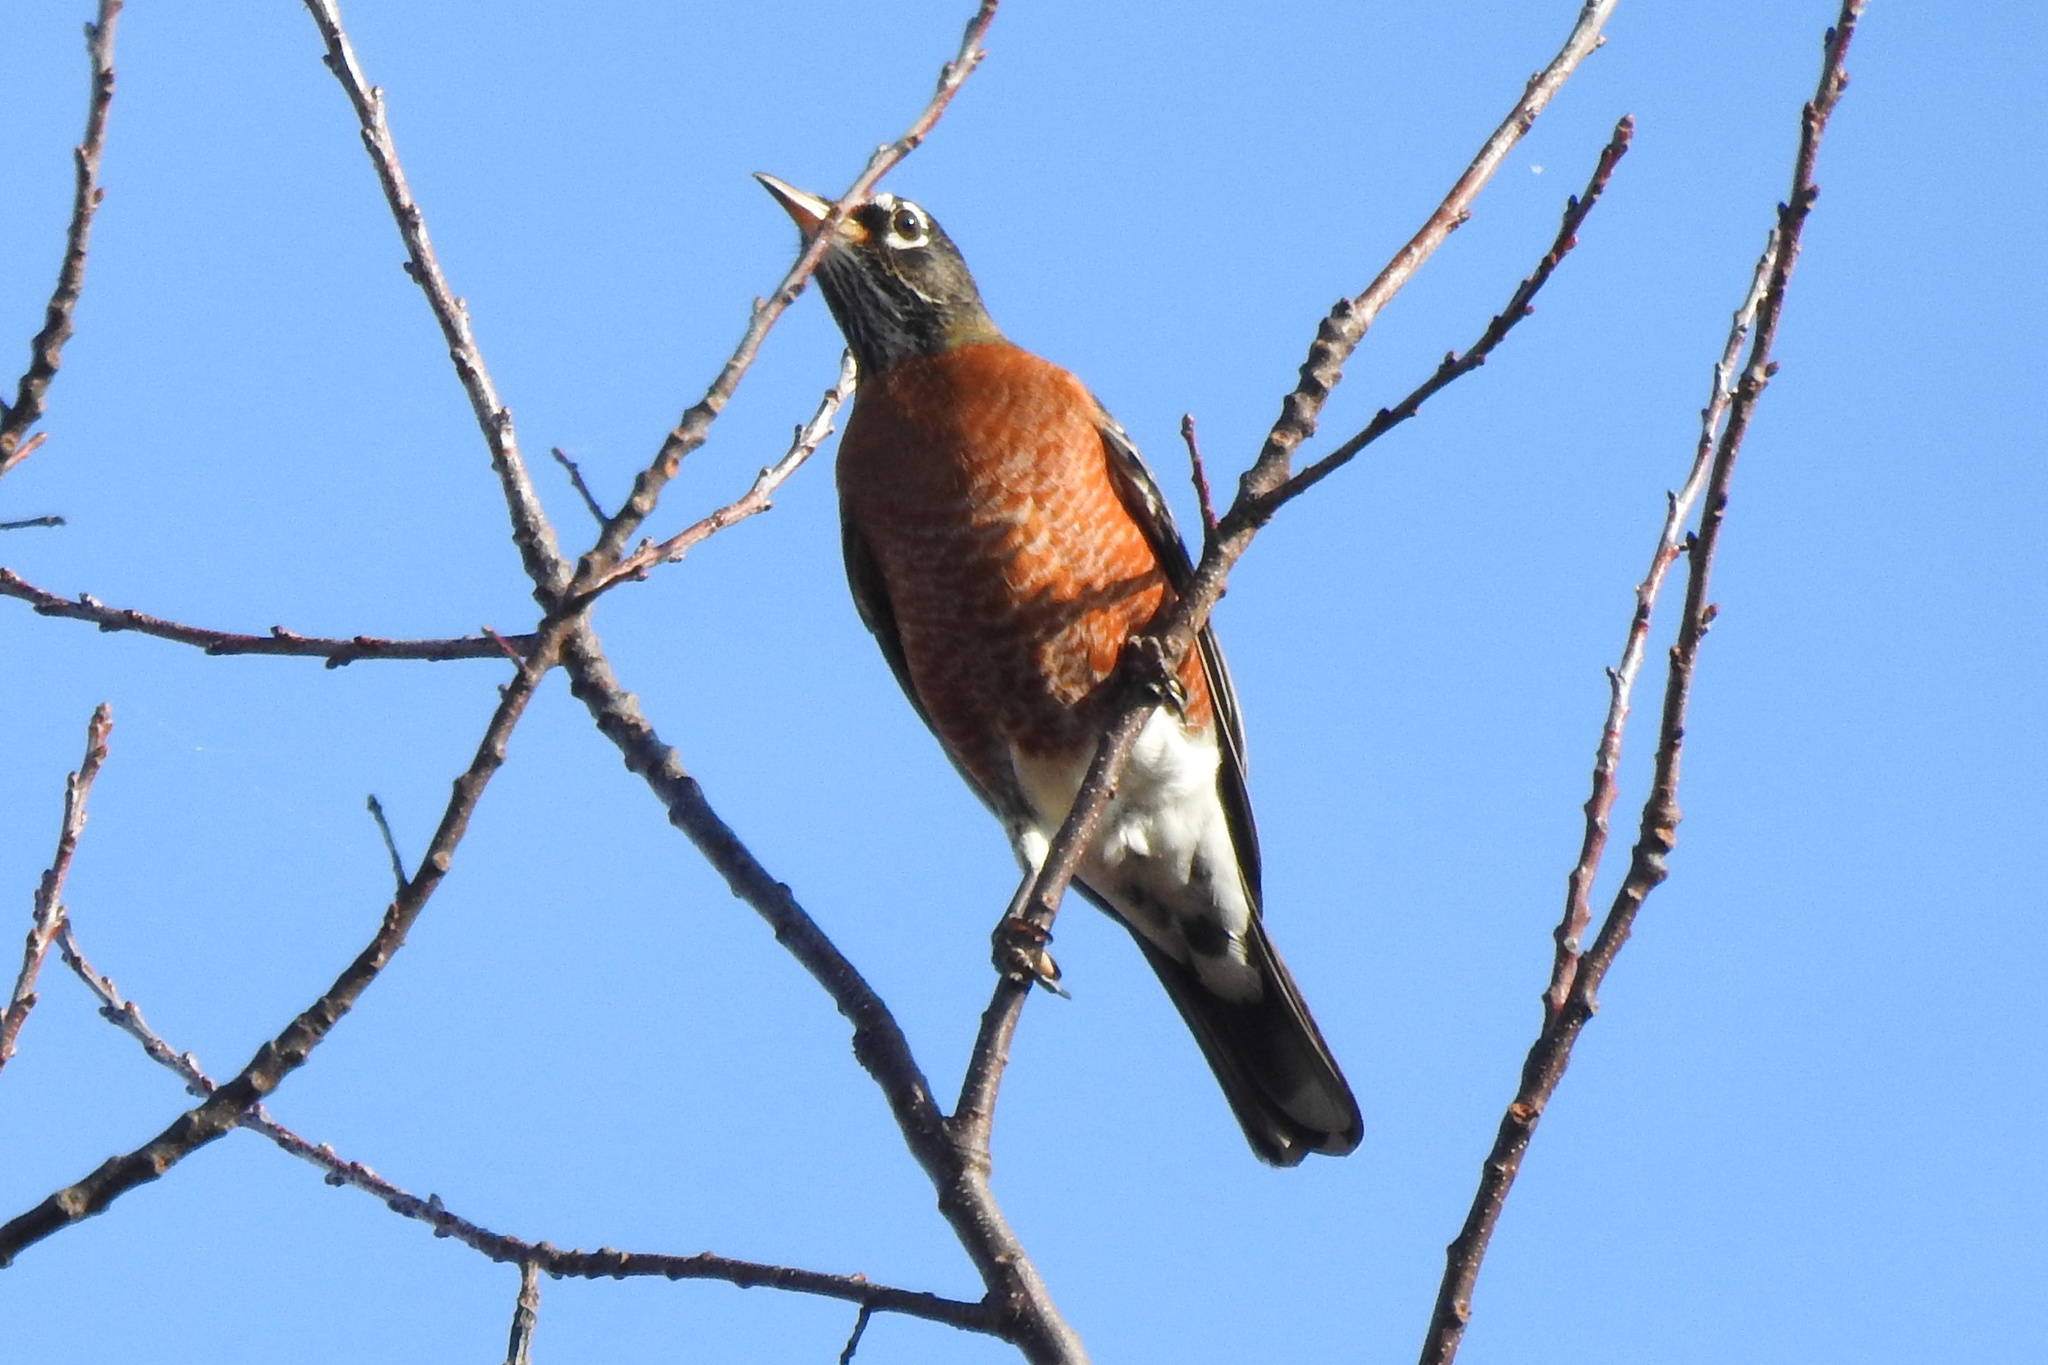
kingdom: Animalia
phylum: Chordata
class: Aves
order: Passeriformes
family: Turdidae
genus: Turdus
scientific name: Turdus migratorius
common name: American robin
